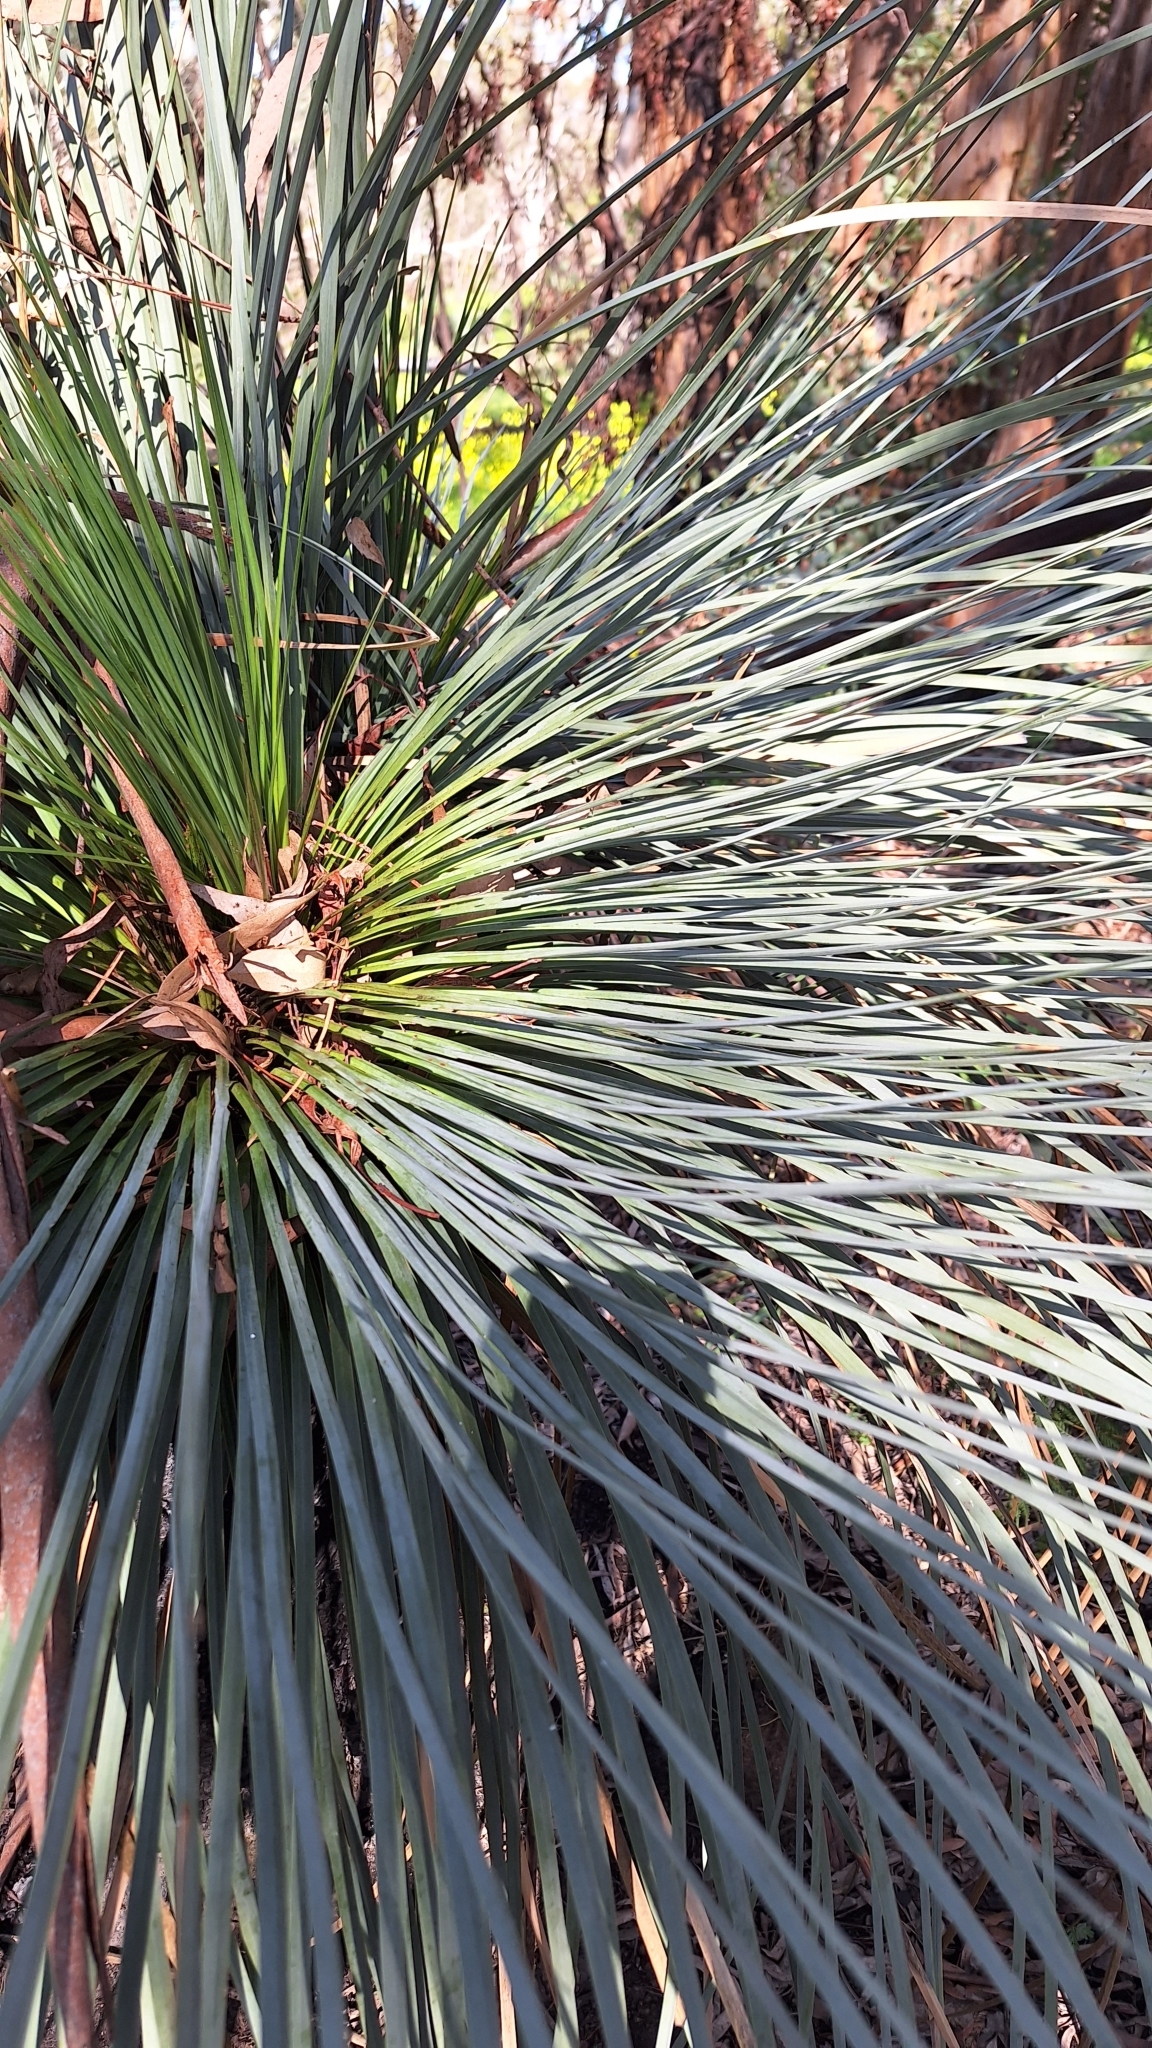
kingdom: Plantae
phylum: Tracheophyta
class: Liliopsida
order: Asparagales
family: Asphodelaceae
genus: Xanthorrhoea
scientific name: Xanthorrhoea semiplana
